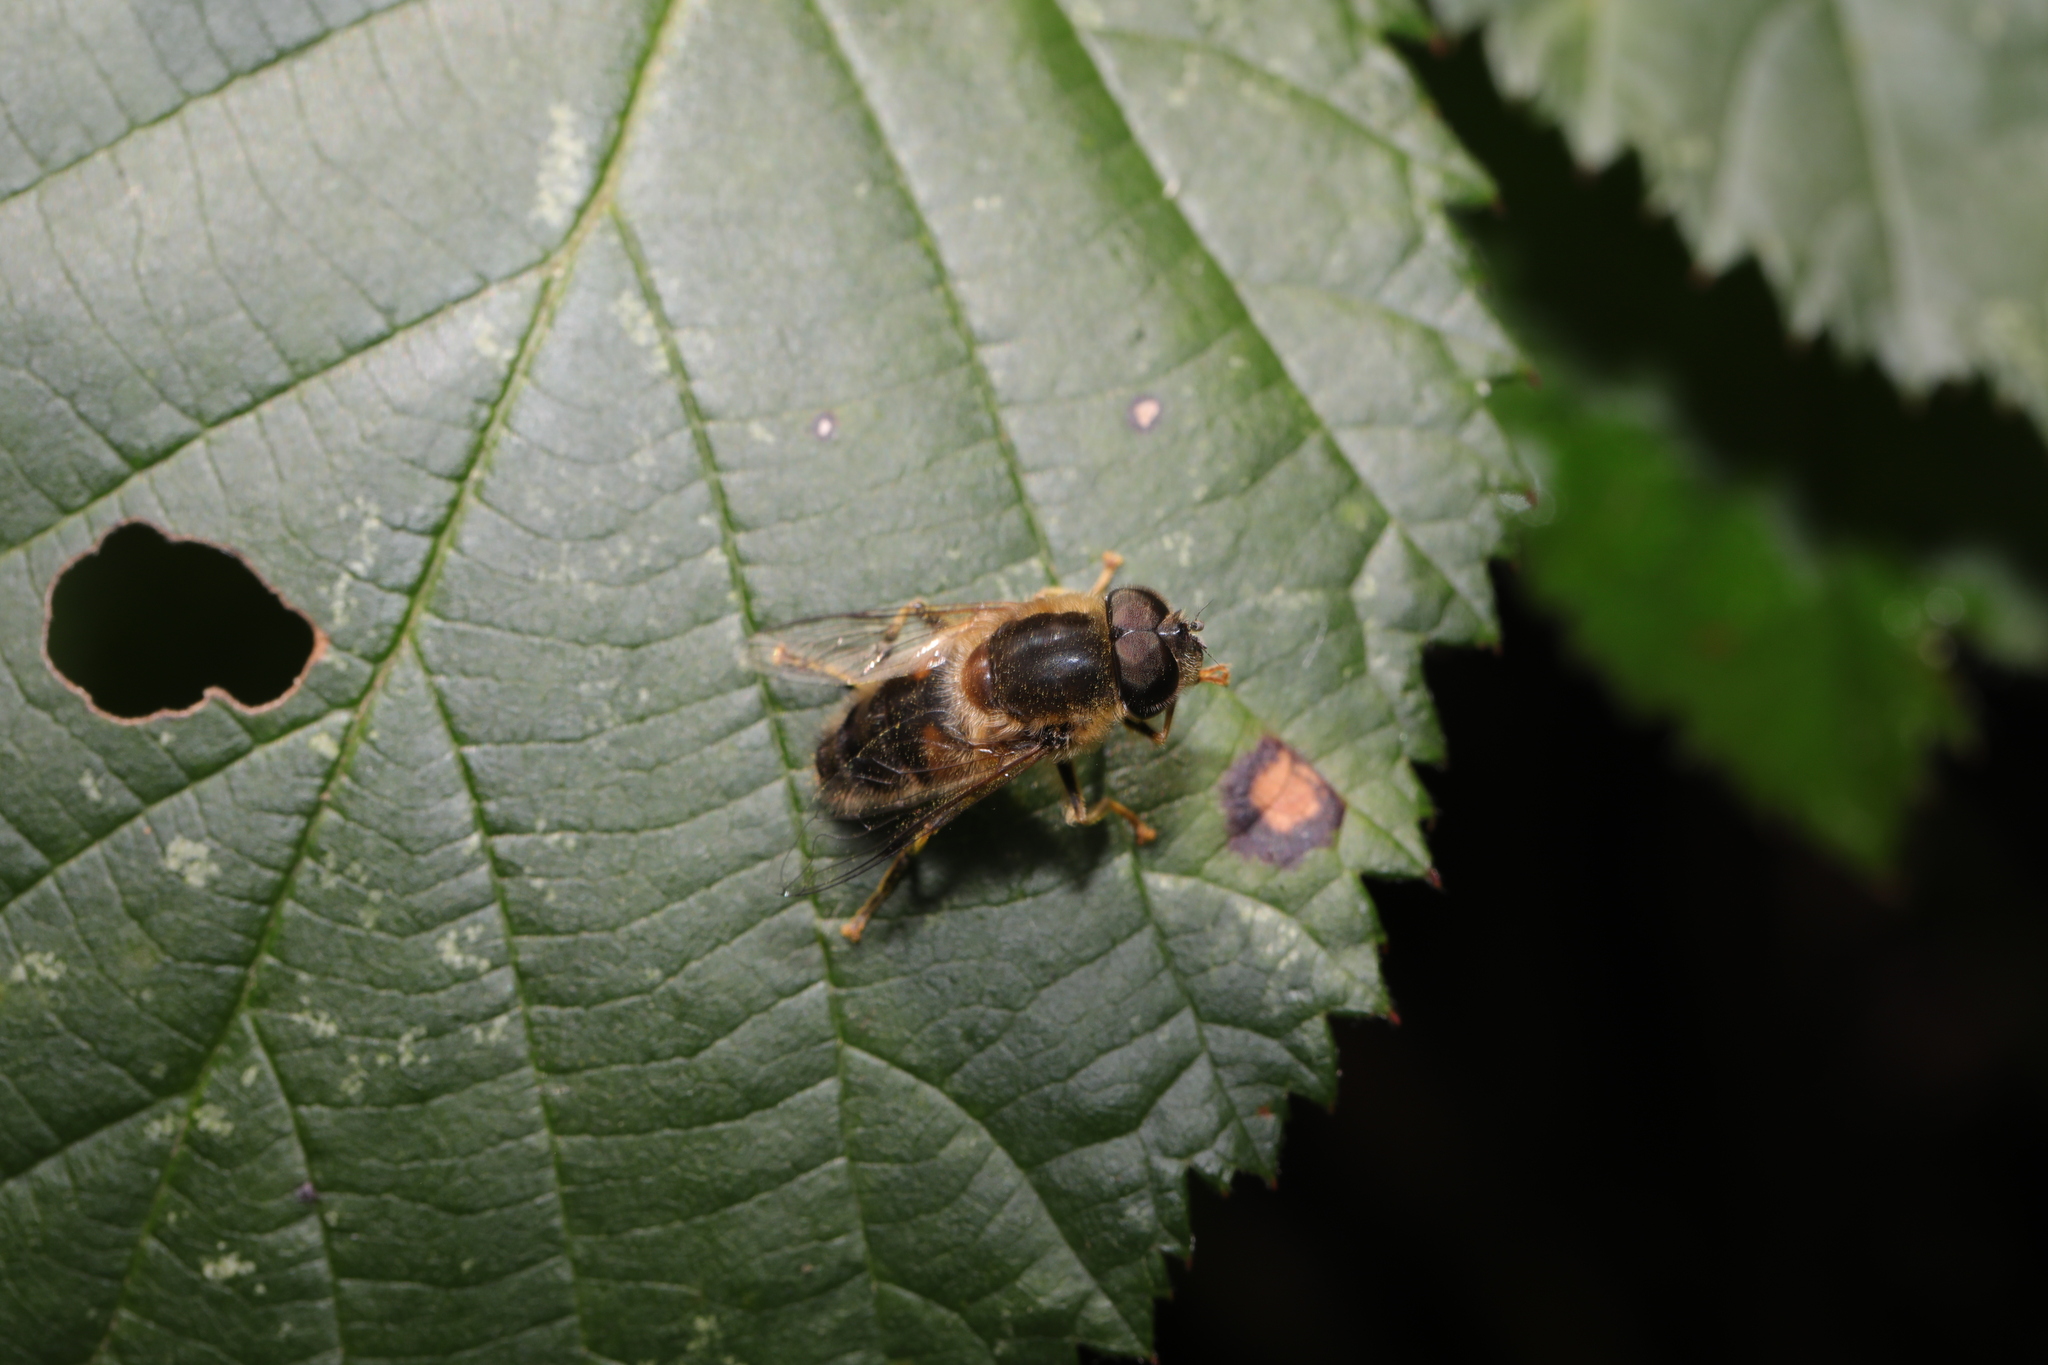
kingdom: Animalia
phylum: Arthropoda
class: Insecta
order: Diptera
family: Syrphidae
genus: Eristalis
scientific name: Eristalis pertinax
